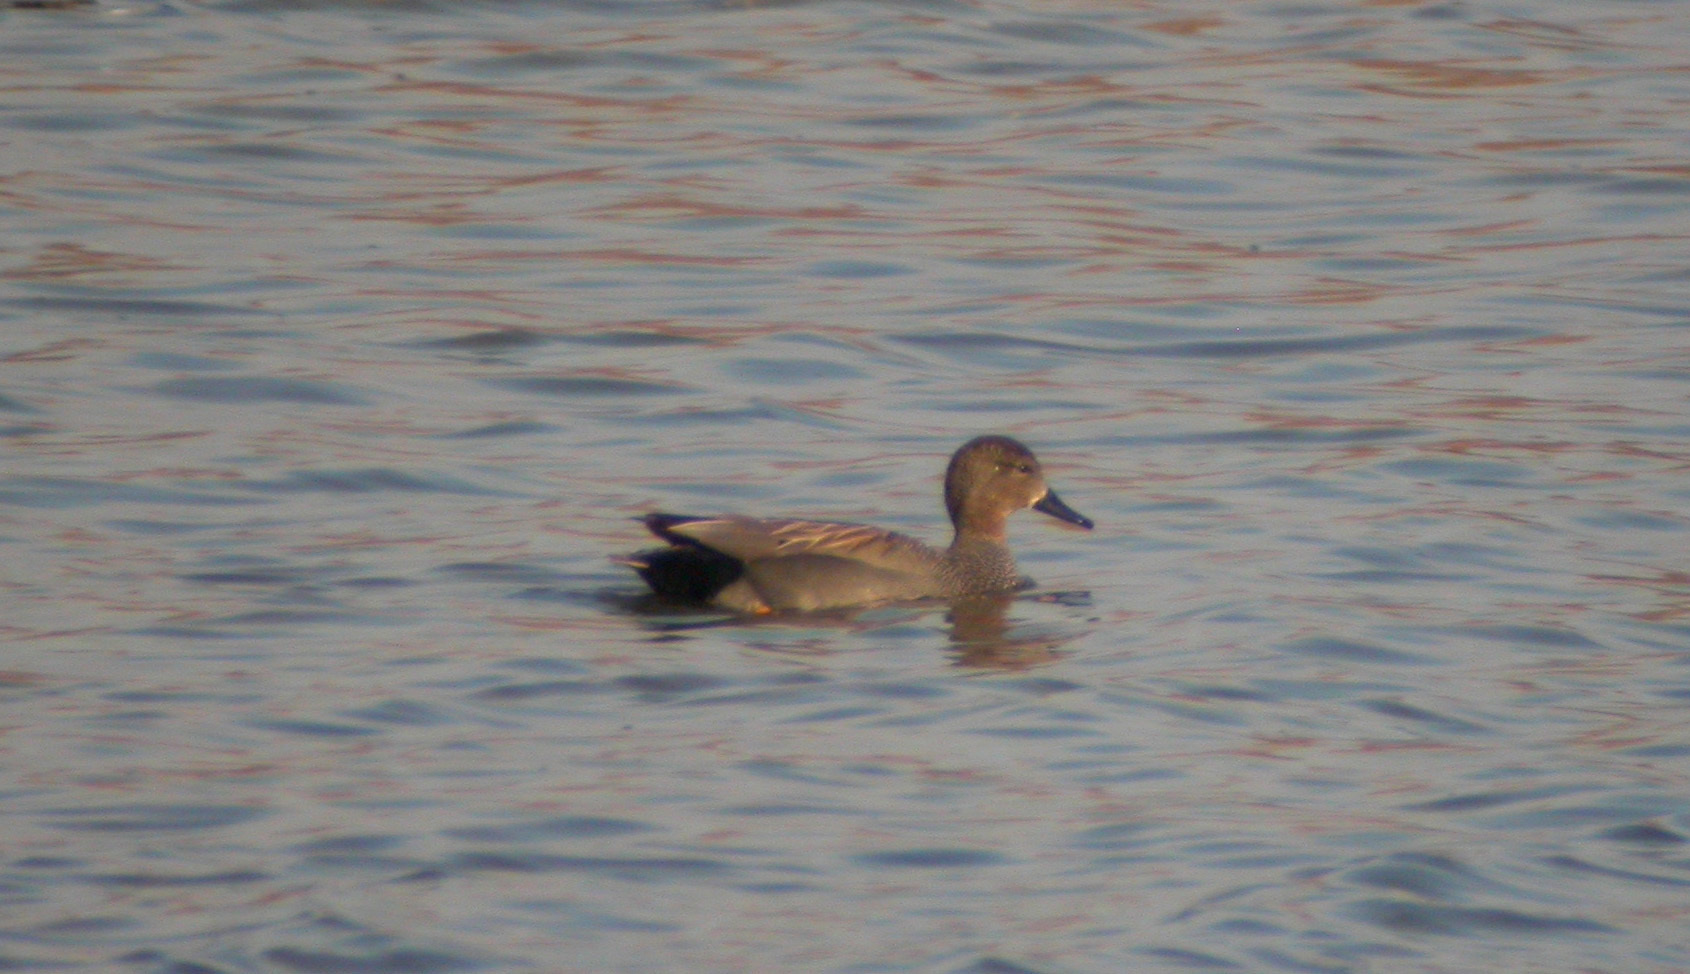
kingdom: Animalia
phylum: Chordata
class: Aves
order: Anseriformes
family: Anatidae
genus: Mareca
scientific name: Mareca strepera
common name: Gadwall
